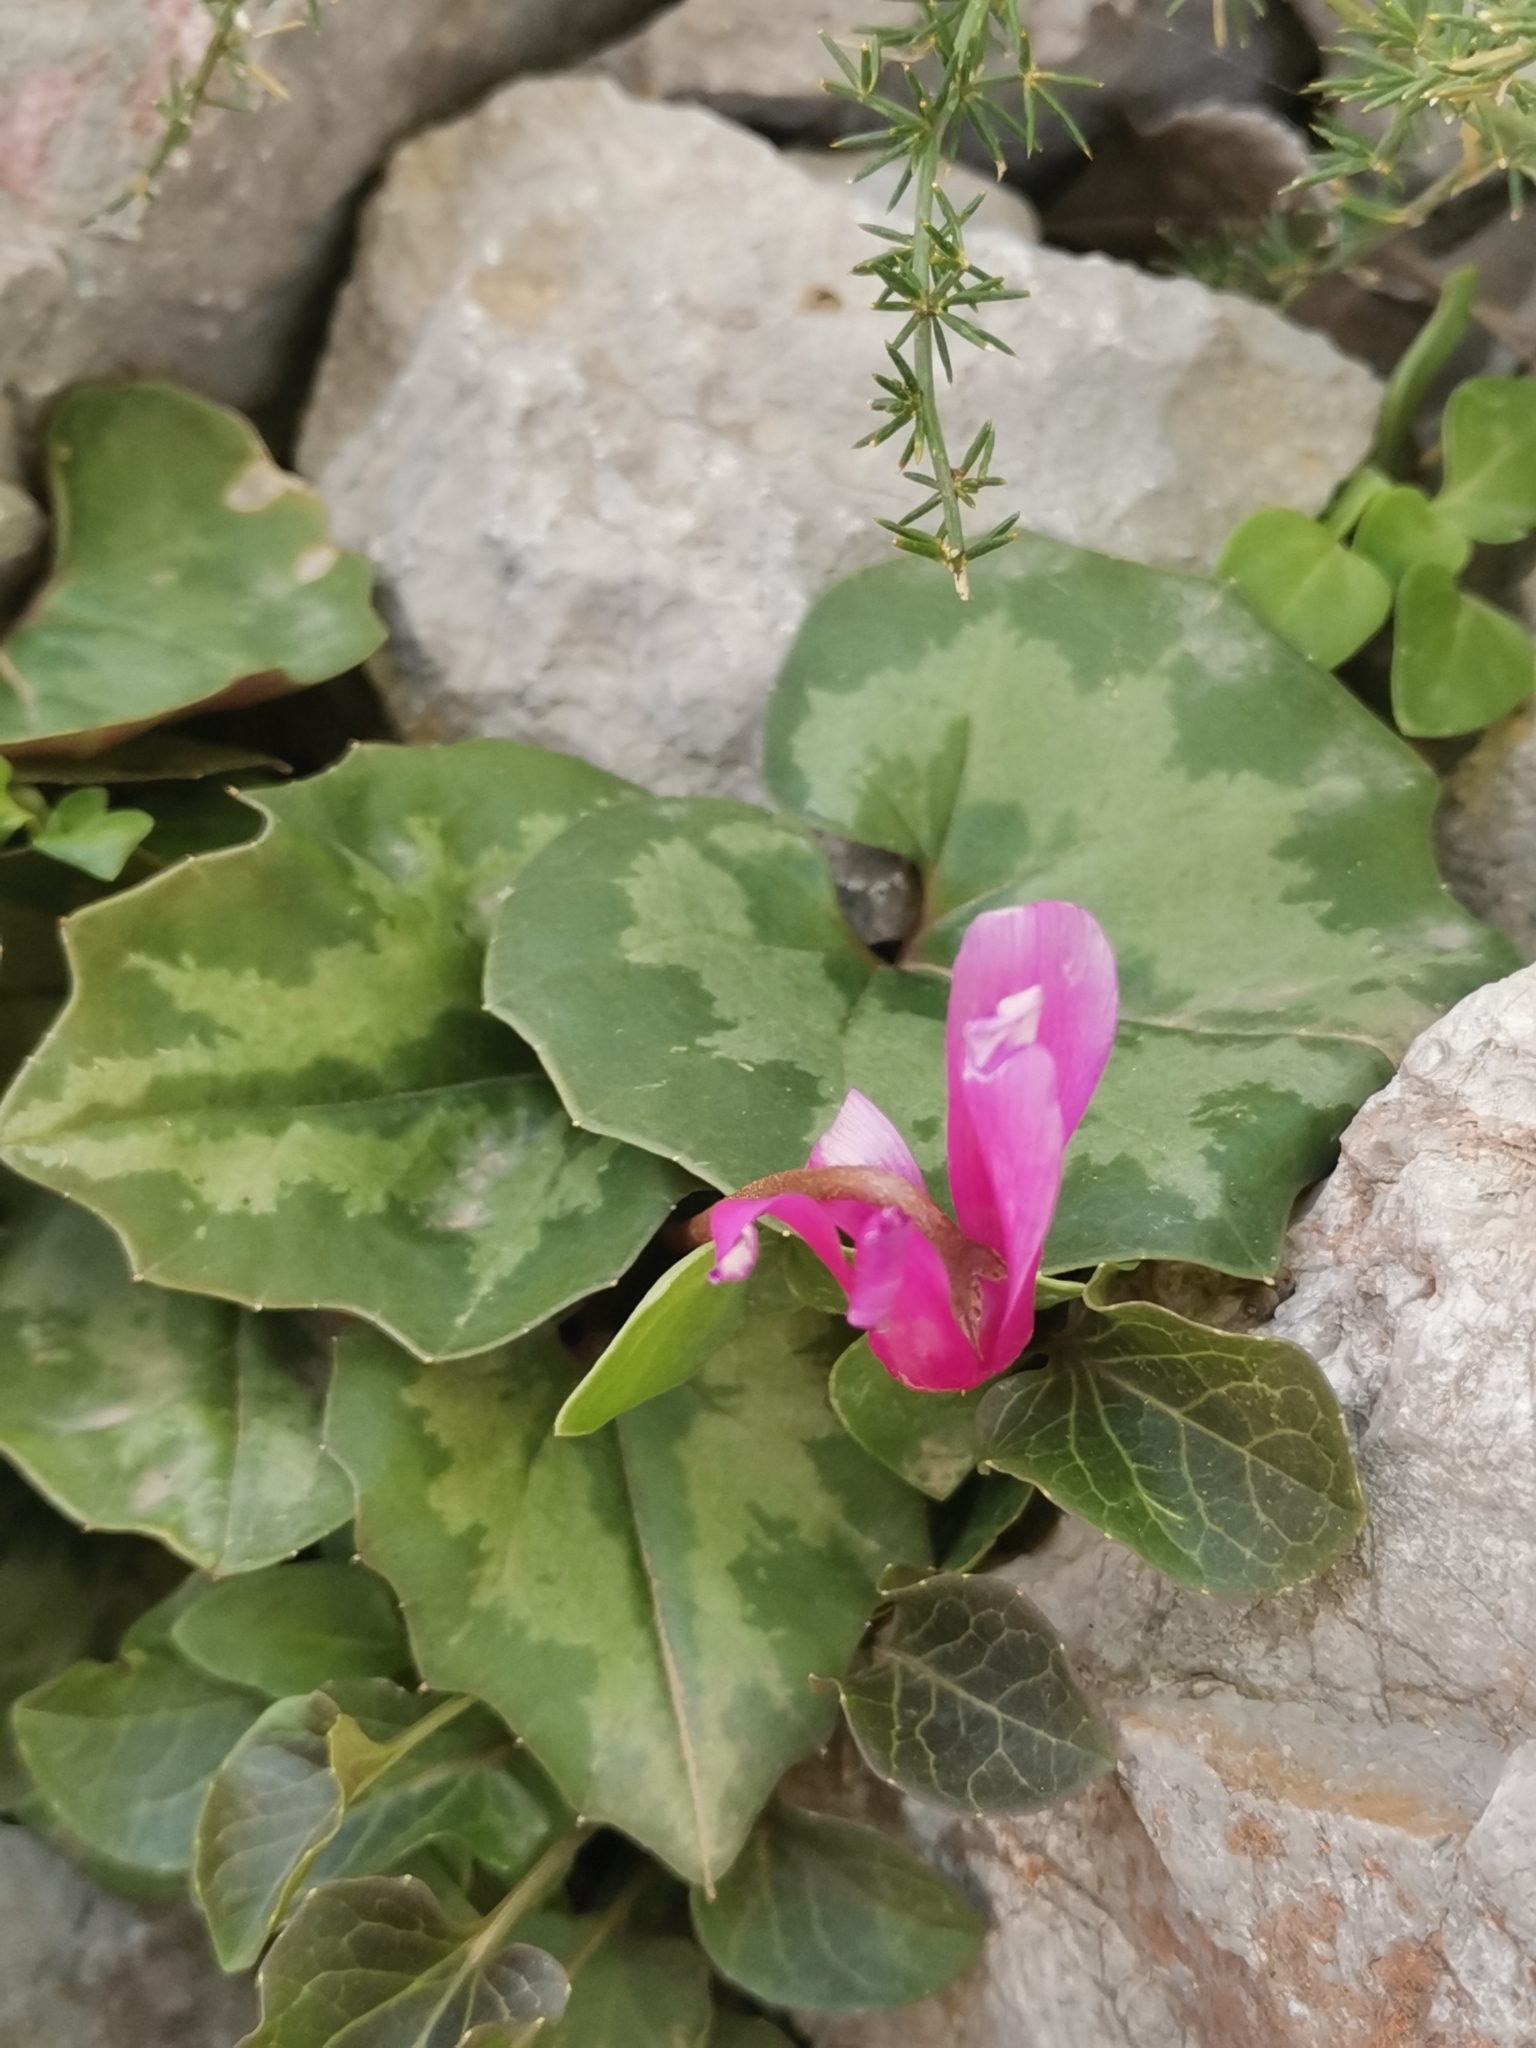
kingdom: Plantae
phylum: Tracheophyta
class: Magnoliopsida
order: Ericales
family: Primulaceae
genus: Cyclamen
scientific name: Cyclamen repandum
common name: Spring sowbread
